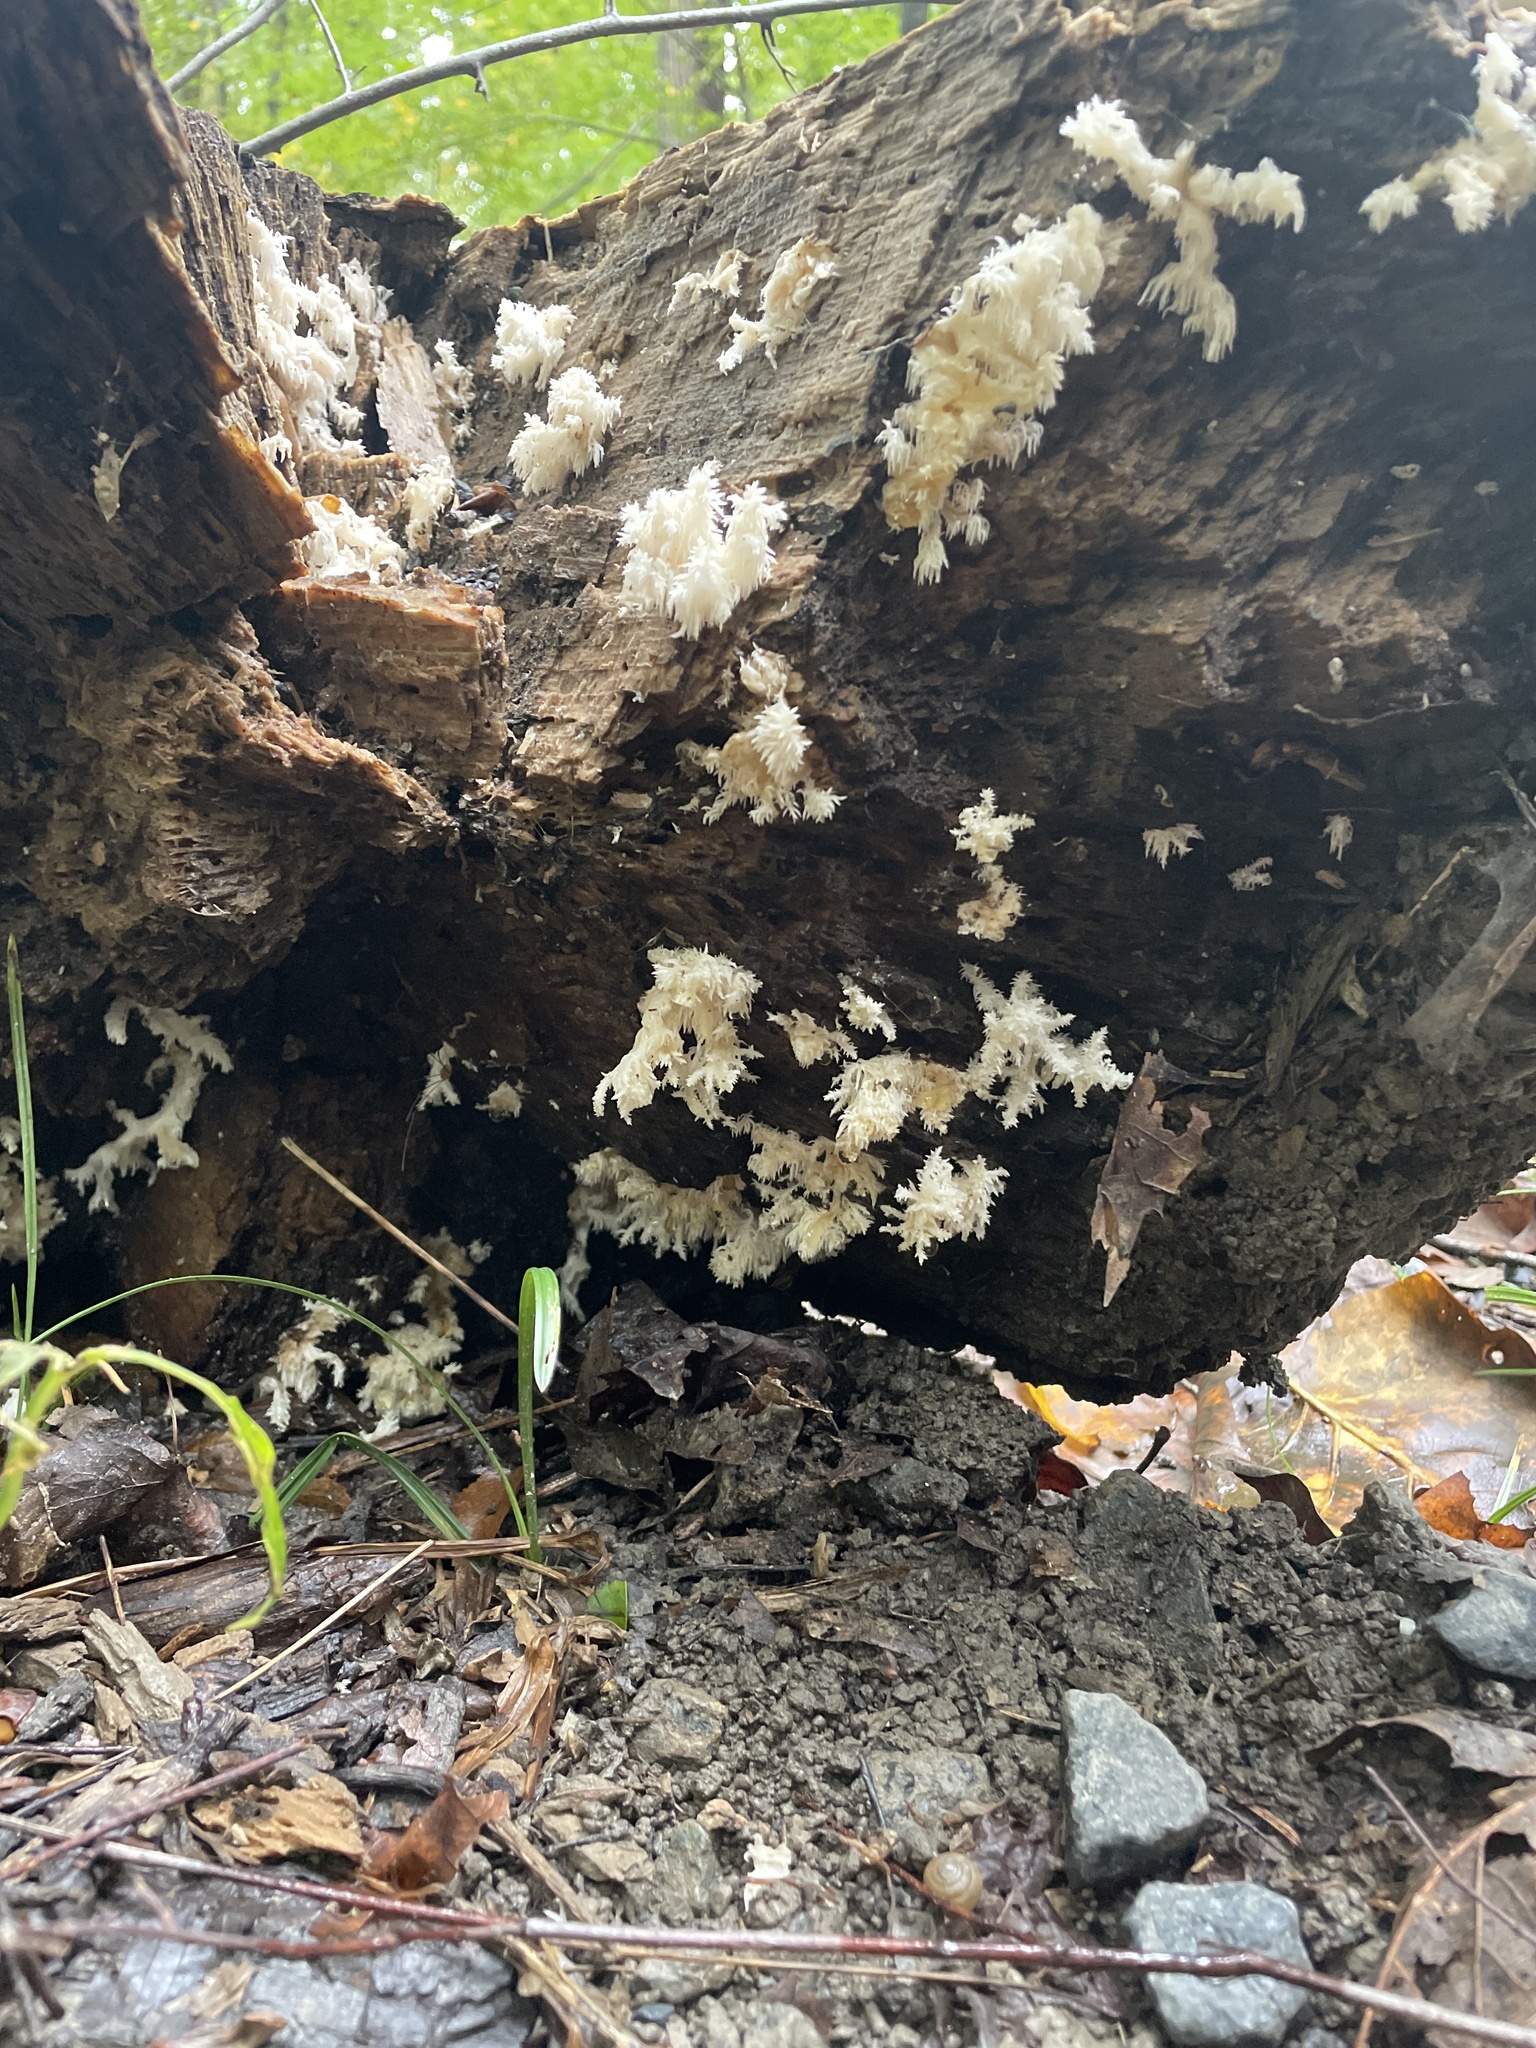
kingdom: Fungi
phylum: Basidiomycota
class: Agaricomycetes
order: Russulales
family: Hericiaceae
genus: Hericium
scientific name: Hericium coralloides
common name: Coral tooth
